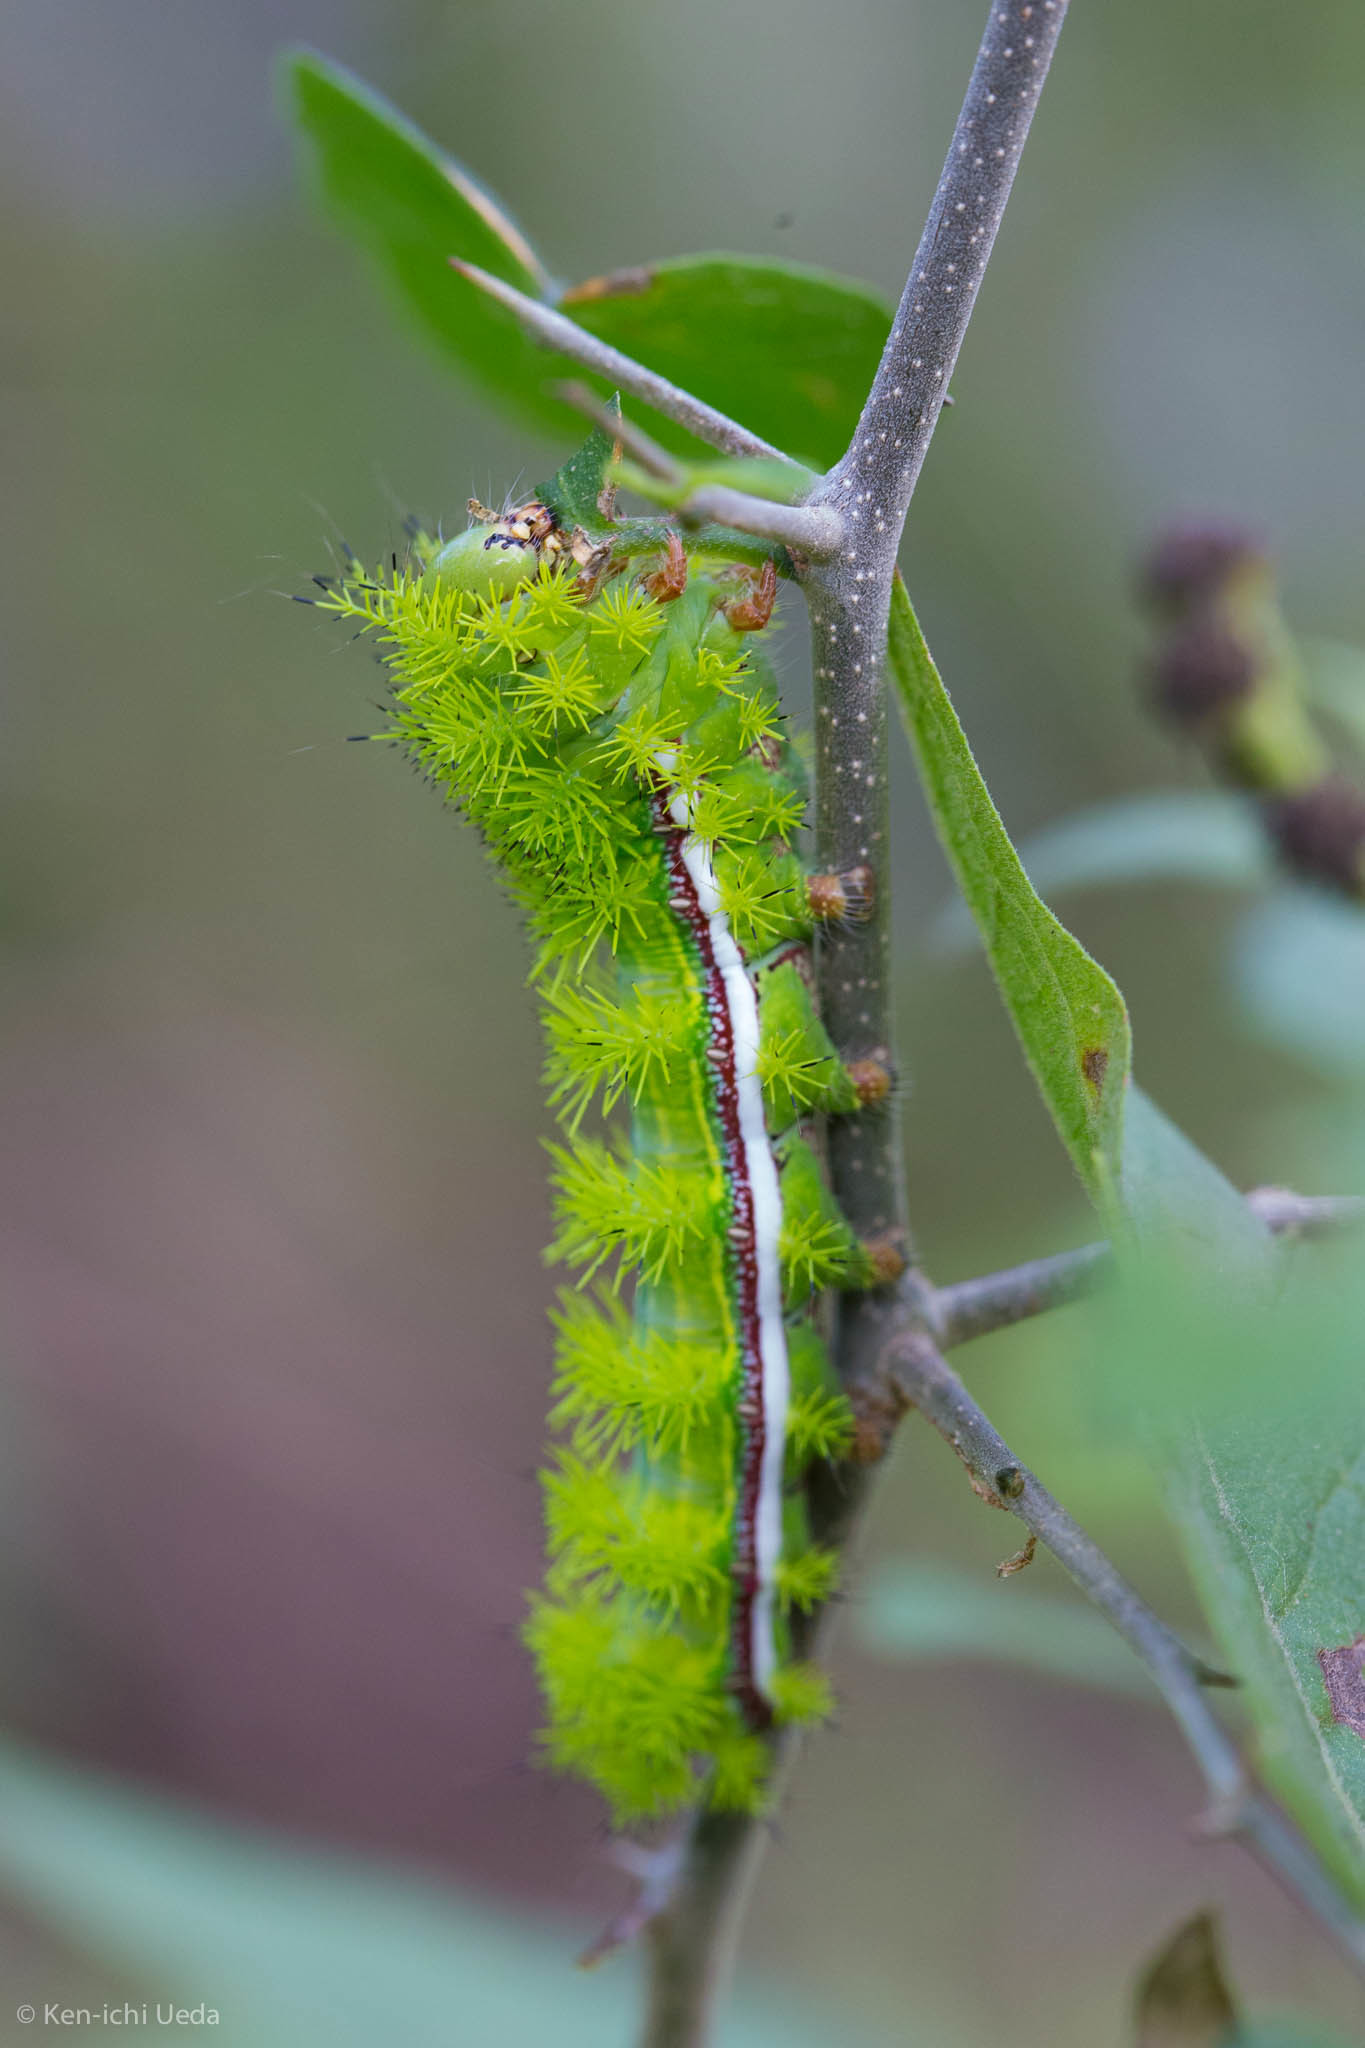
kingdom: Animalia
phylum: Arthropoda
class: Insecta
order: Lepidoptera
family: Saturniidae
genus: Automeris
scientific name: Automeris io
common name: Io moth
